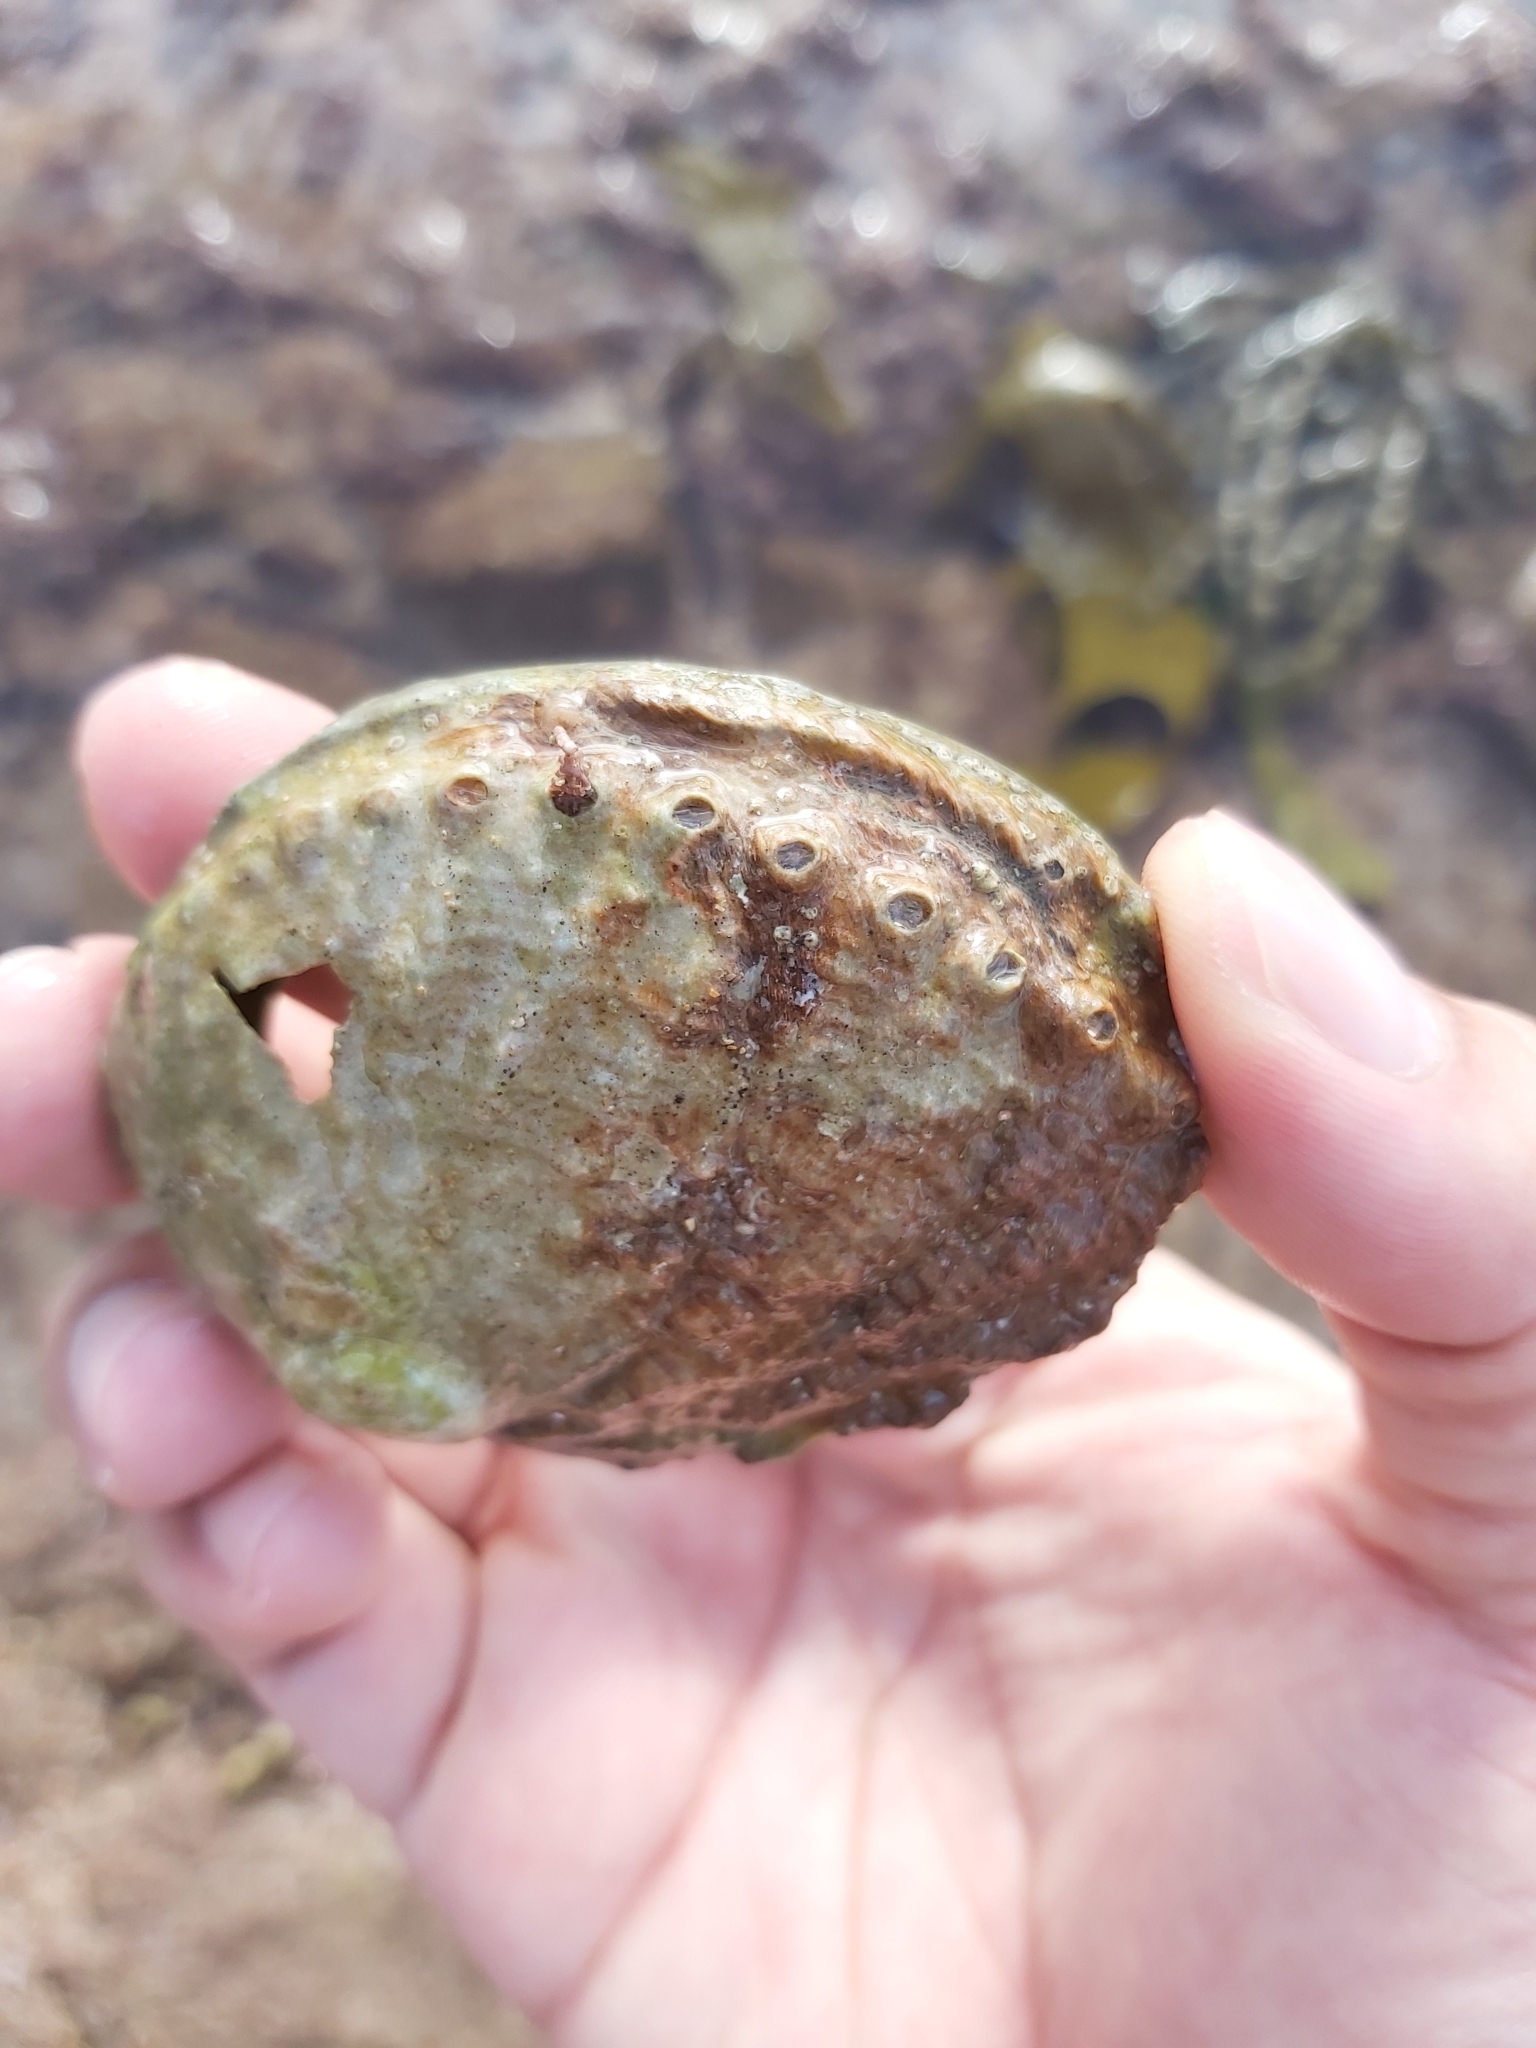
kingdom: Animalia
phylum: Mollusca
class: Gastropoda
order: Lepetellida
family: Haliotidae
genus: Haliotis
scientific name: Haliotis rubra
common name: Blacklip abalone
